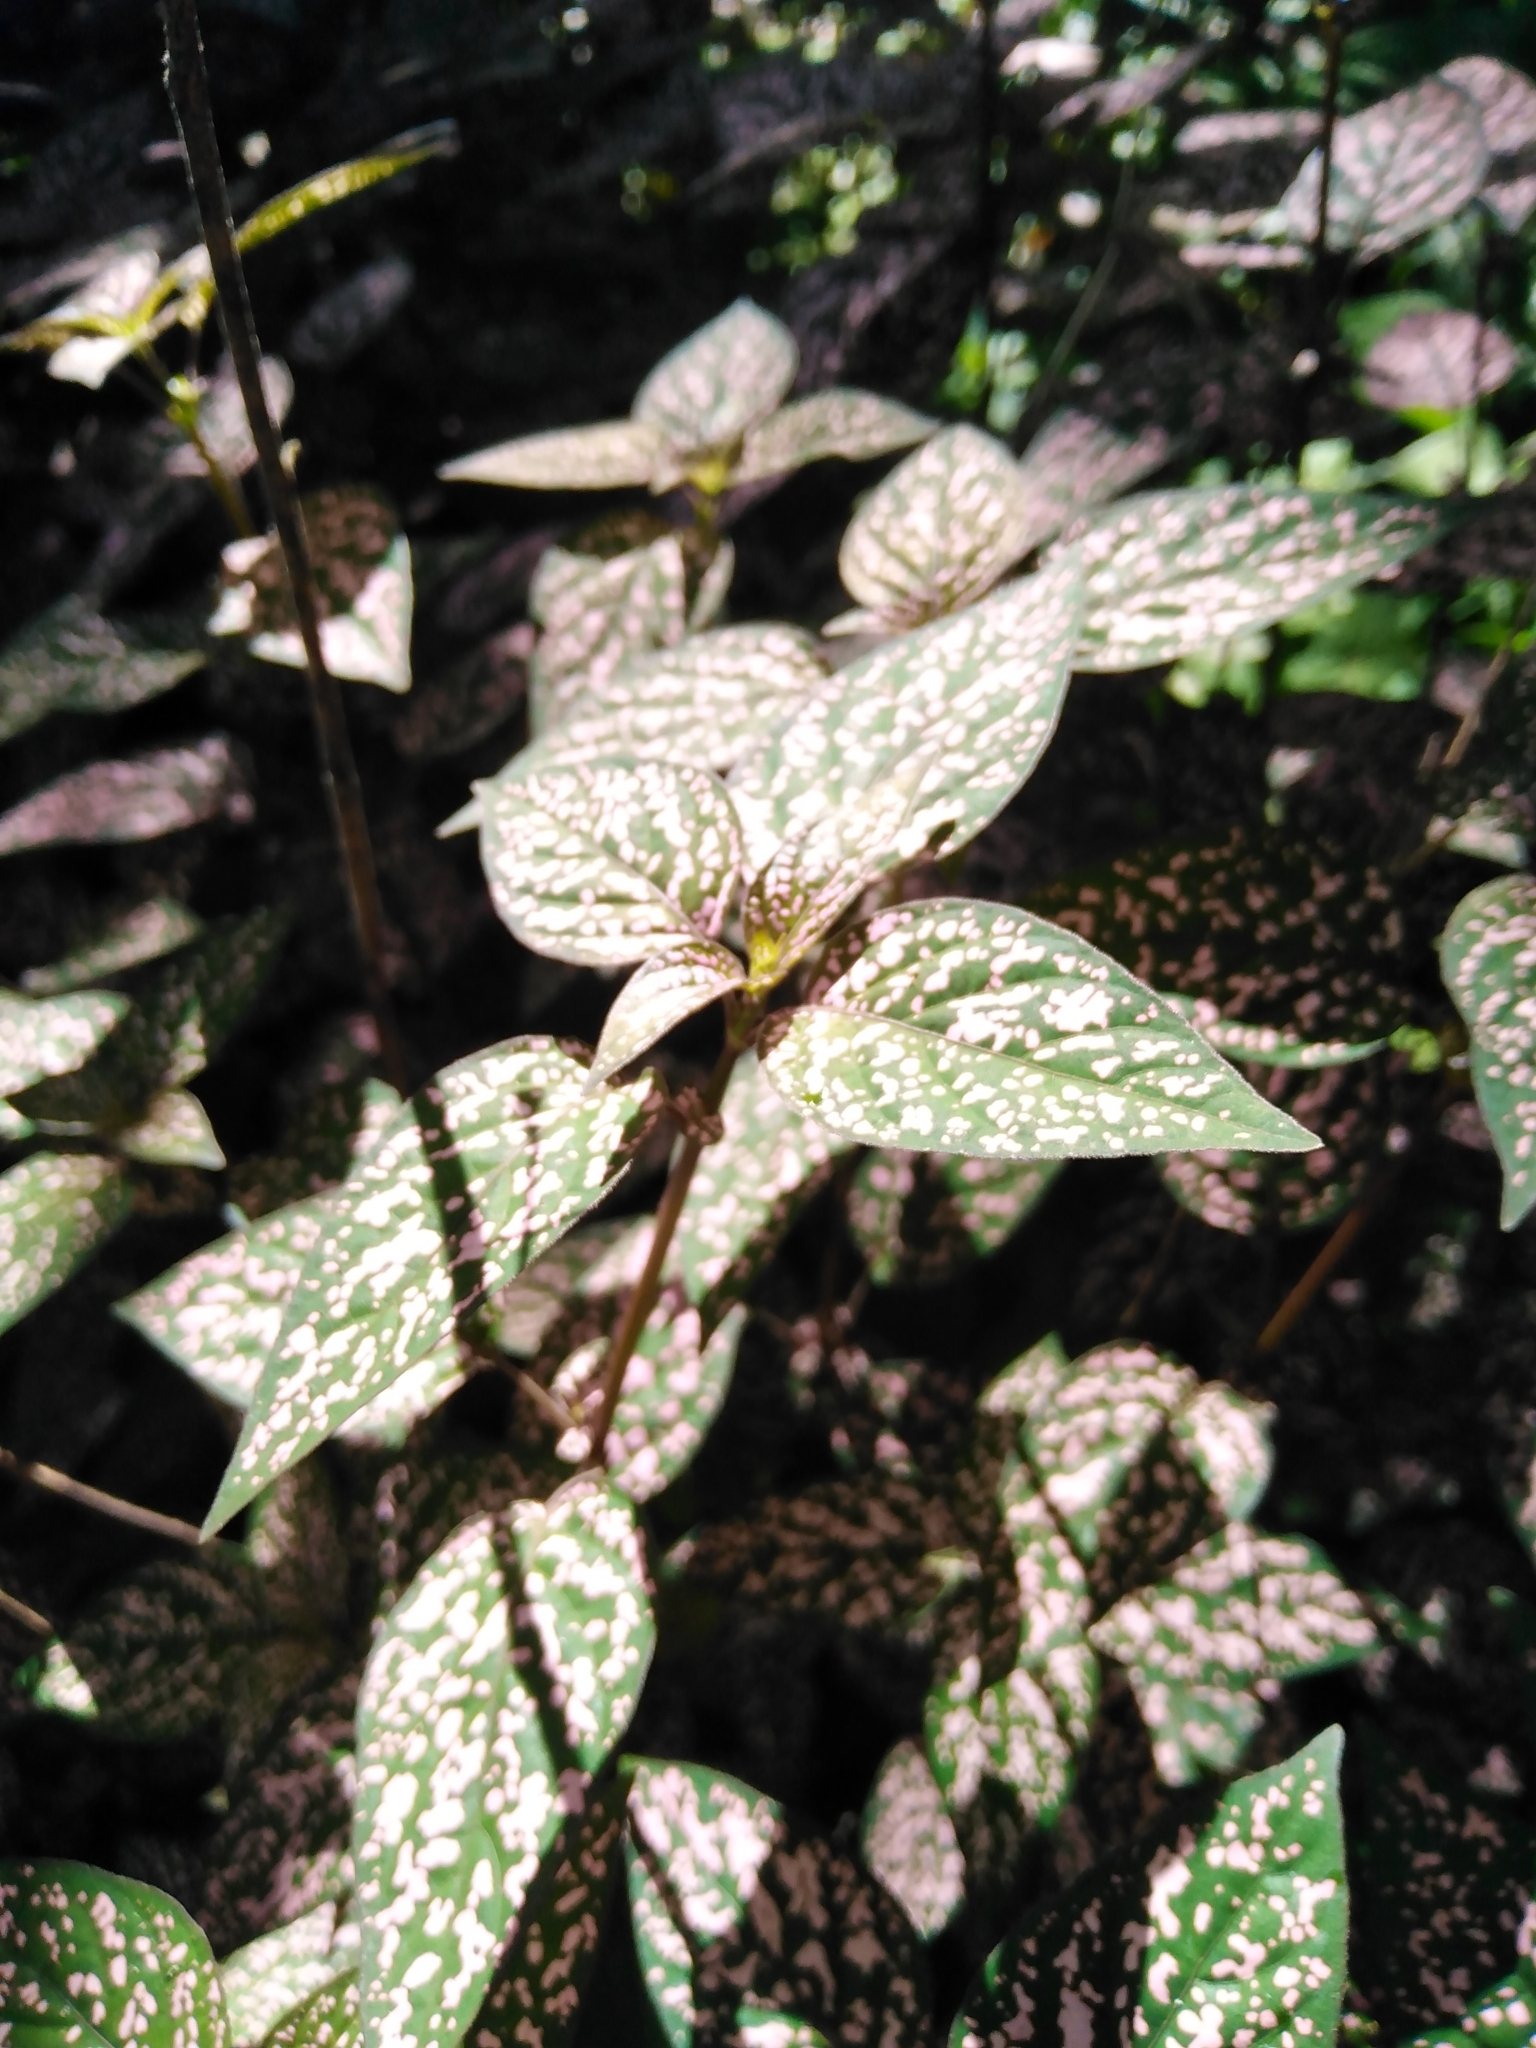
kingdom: Plantae
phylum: Tracheophyta
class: Magnoliopsida
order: Lamiales
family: Acanthaceae
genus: Hypoestes
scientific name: Hypoestes phyllostachya
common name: Polkadot-plant
